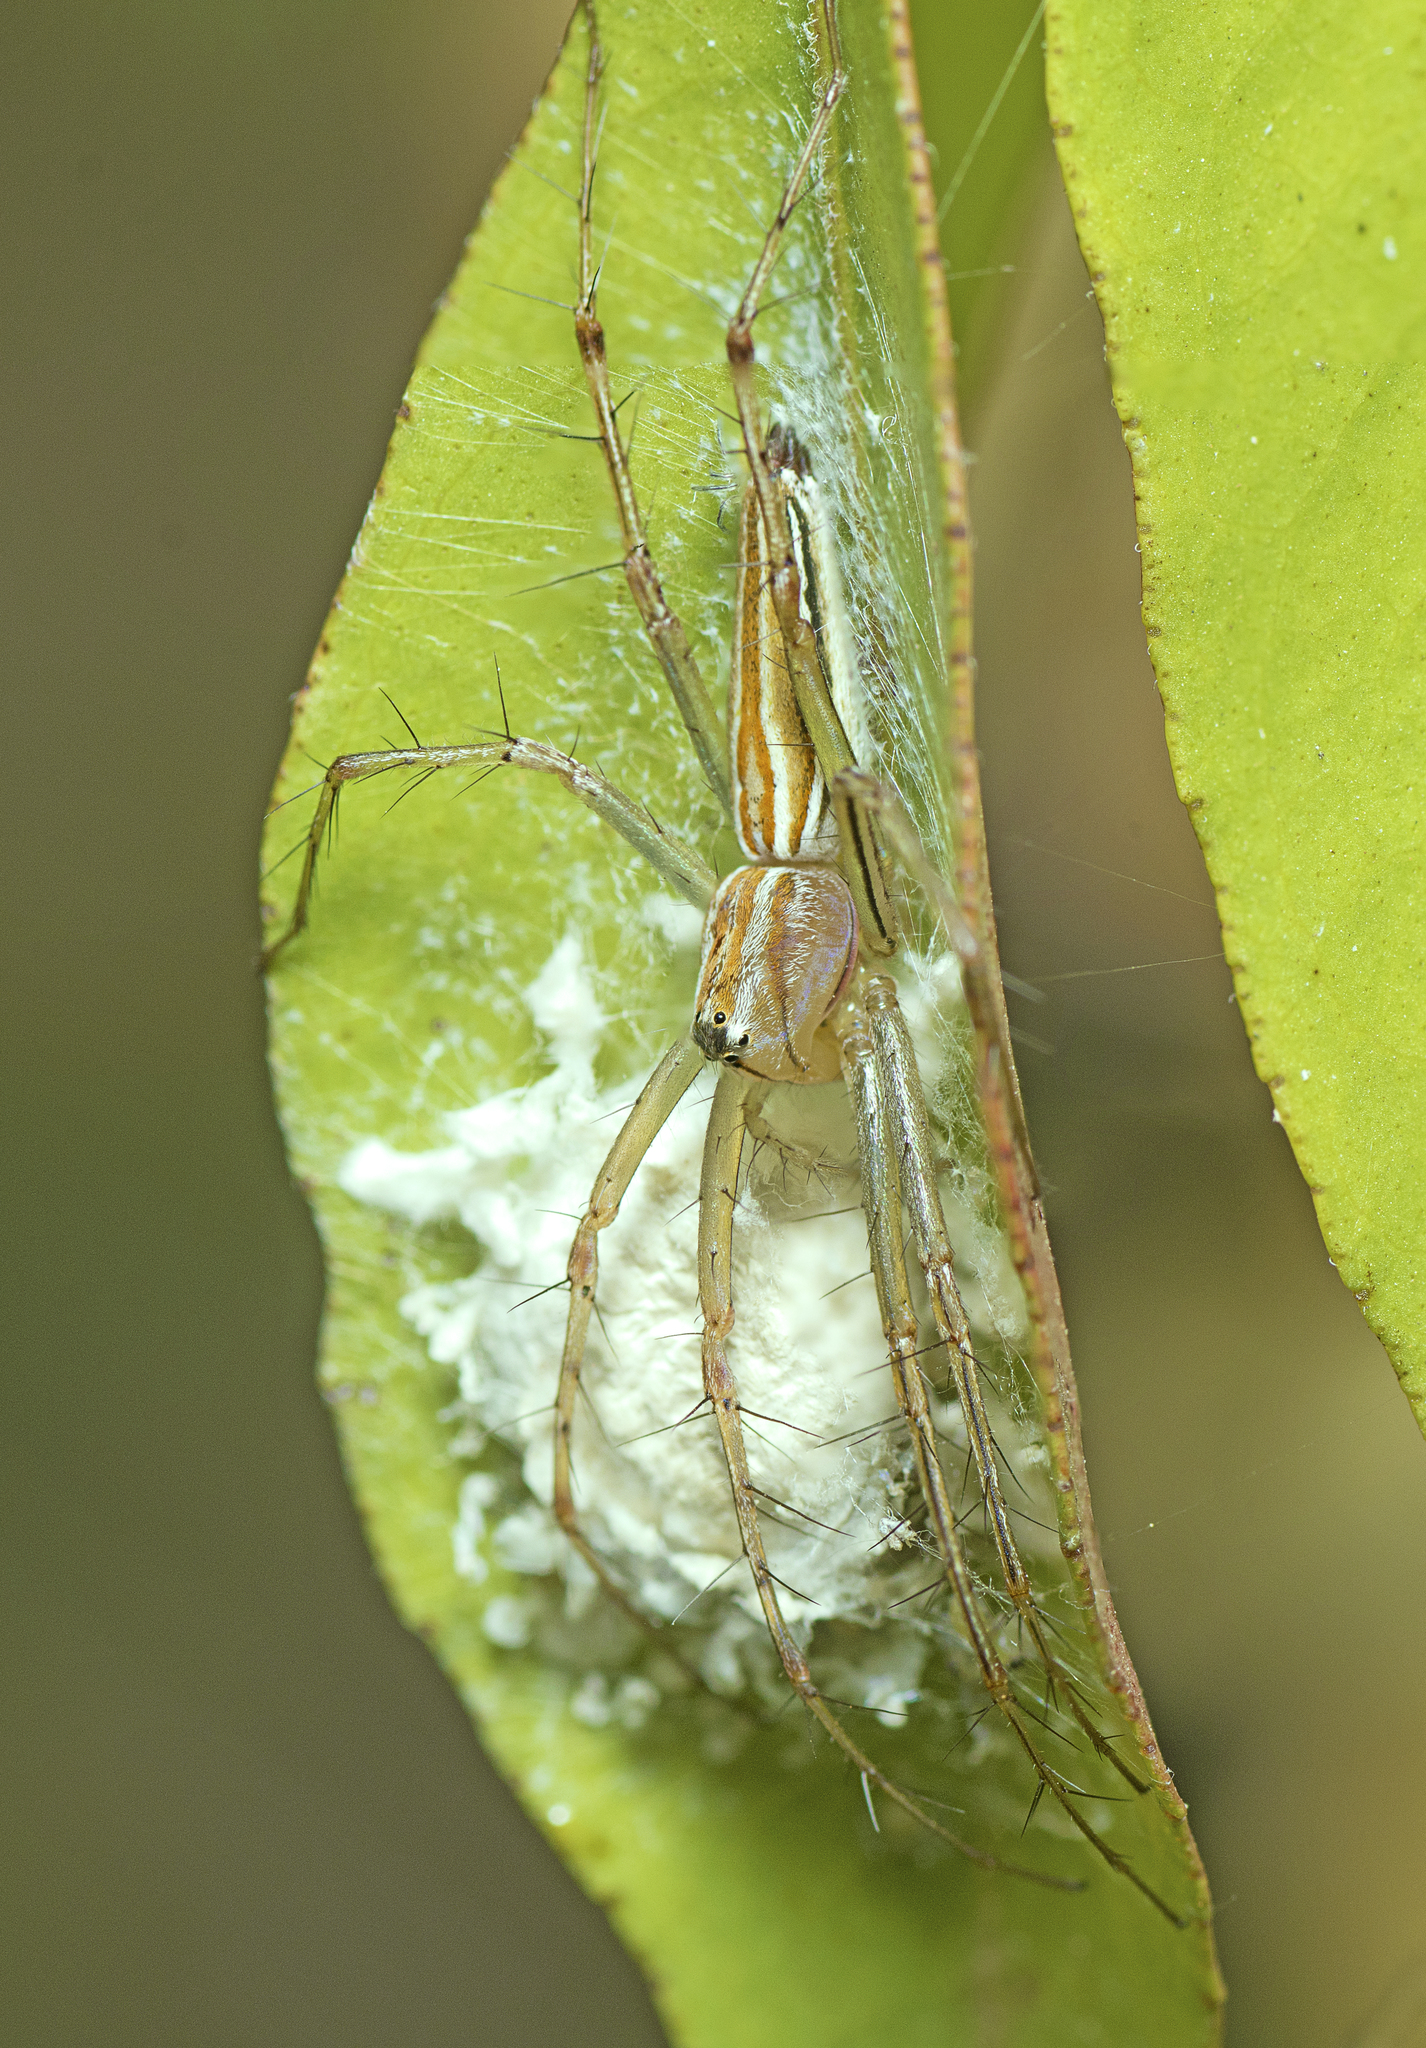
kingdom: Animalia
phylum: Arthropoda
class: Arachnida
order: Araneae
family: Oxyopidae
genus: Oxyopes
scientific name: Oxyopes macilentus
